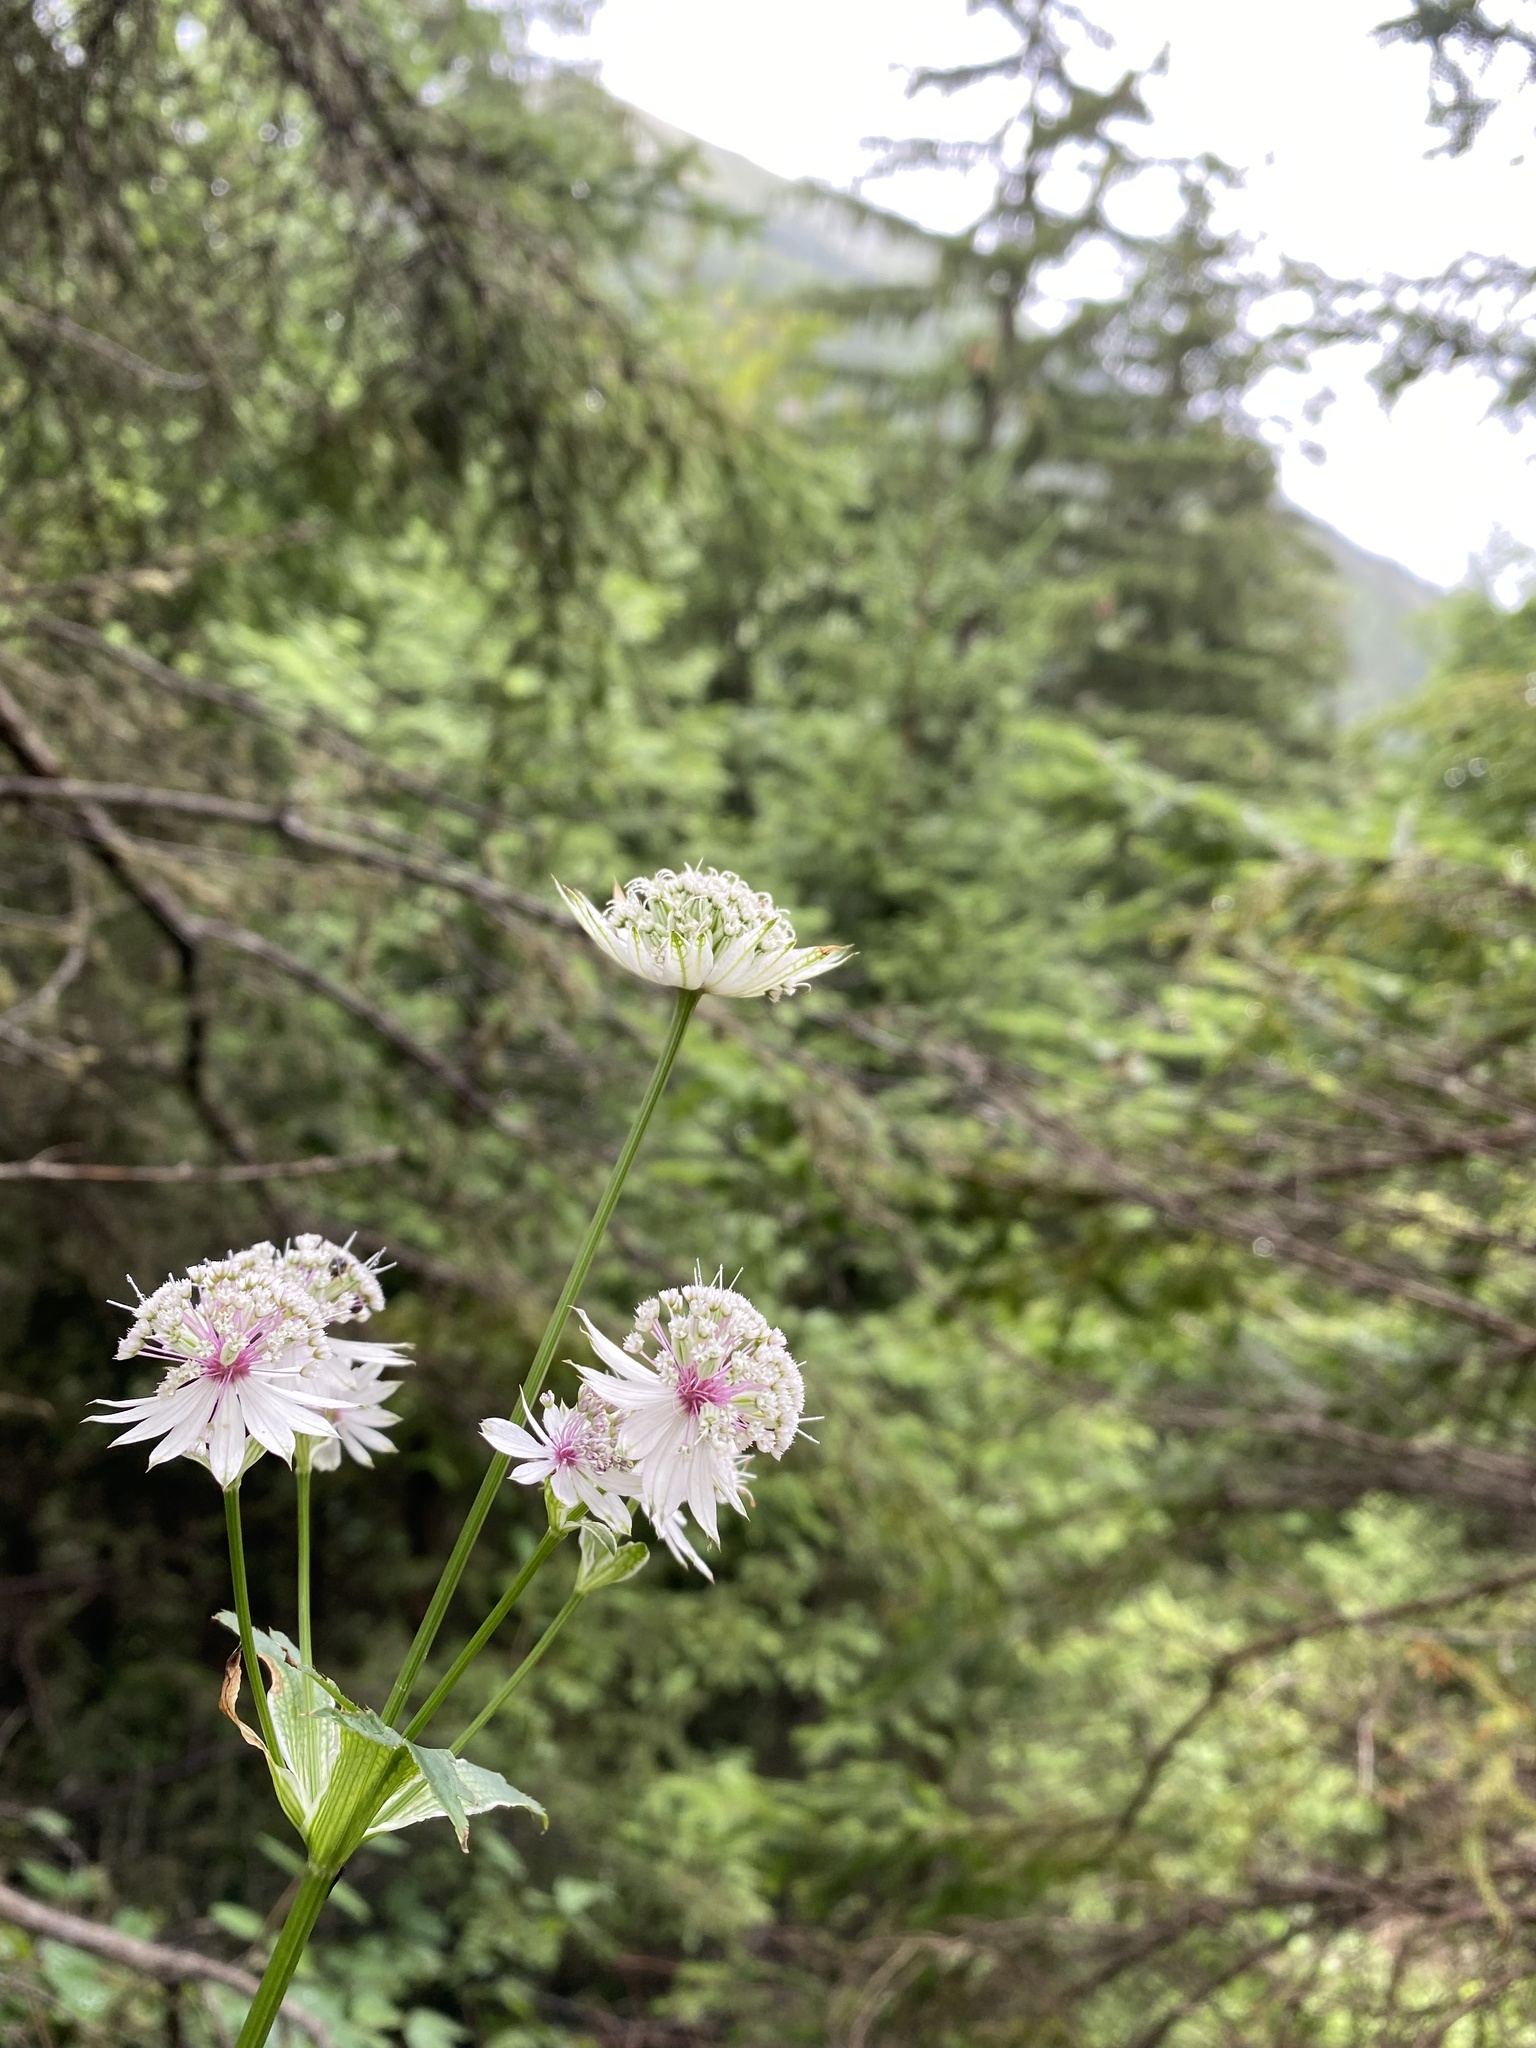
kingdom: Plantae
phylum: Tracheophyta
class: Magnoliopsida
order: Apiales
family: Apiaceae
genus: Astrantia
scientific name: Astrantia major
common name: Greater masterwort
